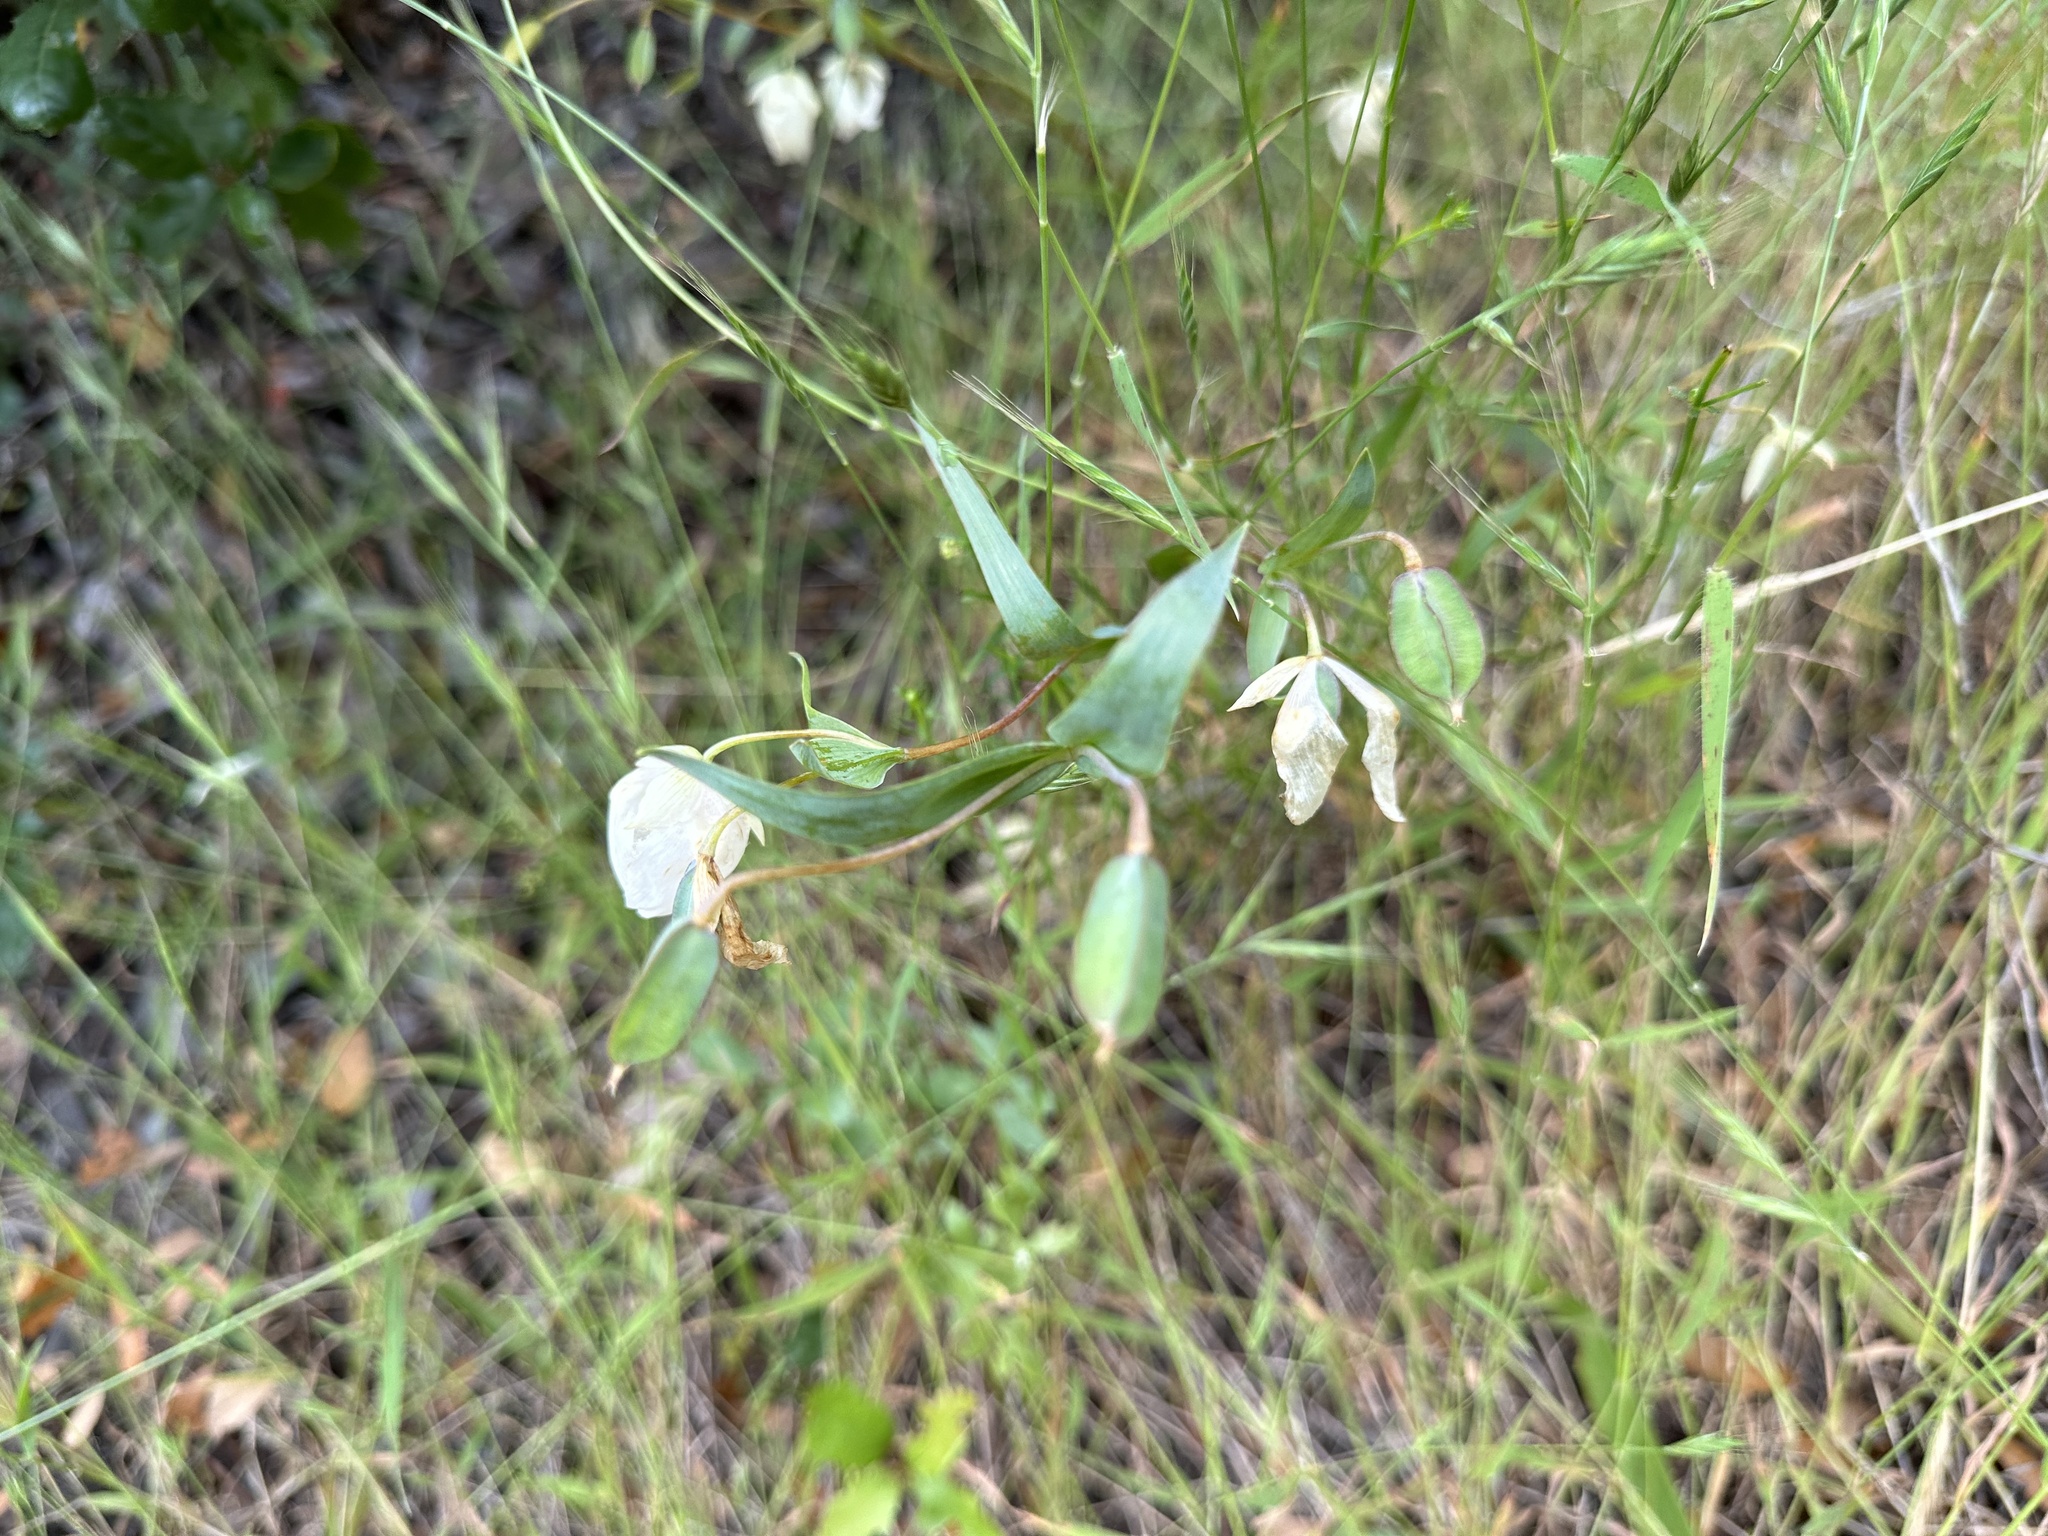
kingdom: Plantae
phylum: Tracheophyta
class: Liliopsida
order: Liliales
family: Liliaceae
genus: Calochortus
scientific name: Calochortus albus
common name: Fairy-lantern
